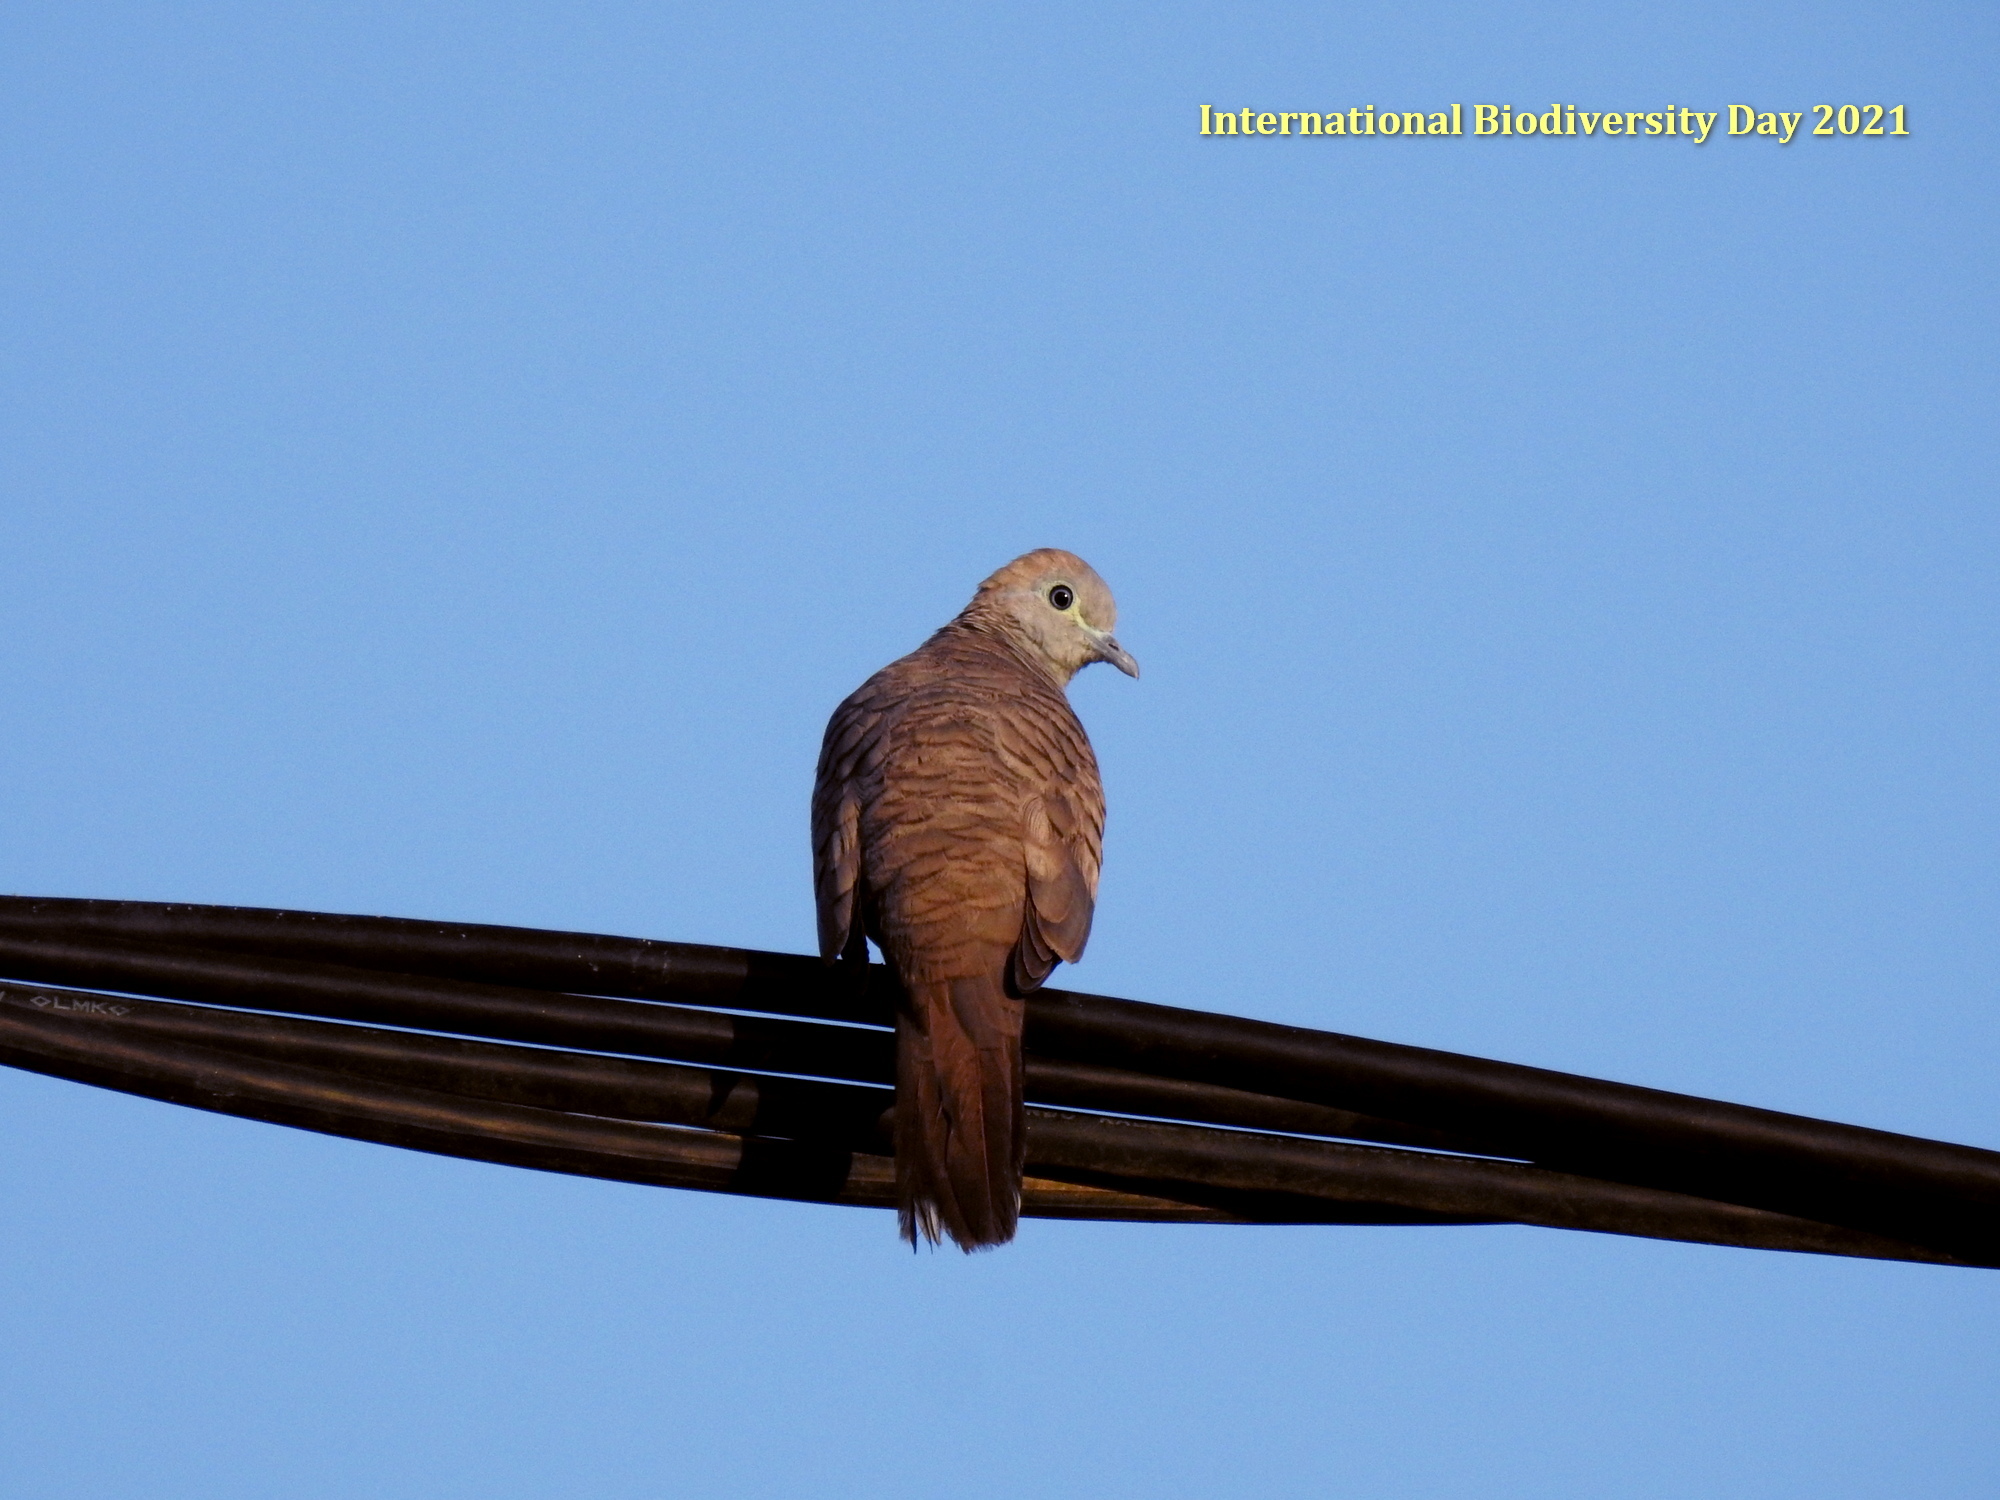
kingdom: Animalia
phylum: Chordata
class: Aves
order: Columbiformes
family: Columbidae
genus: Geopelia
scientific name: Geopelia striata
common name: Zebra dove
